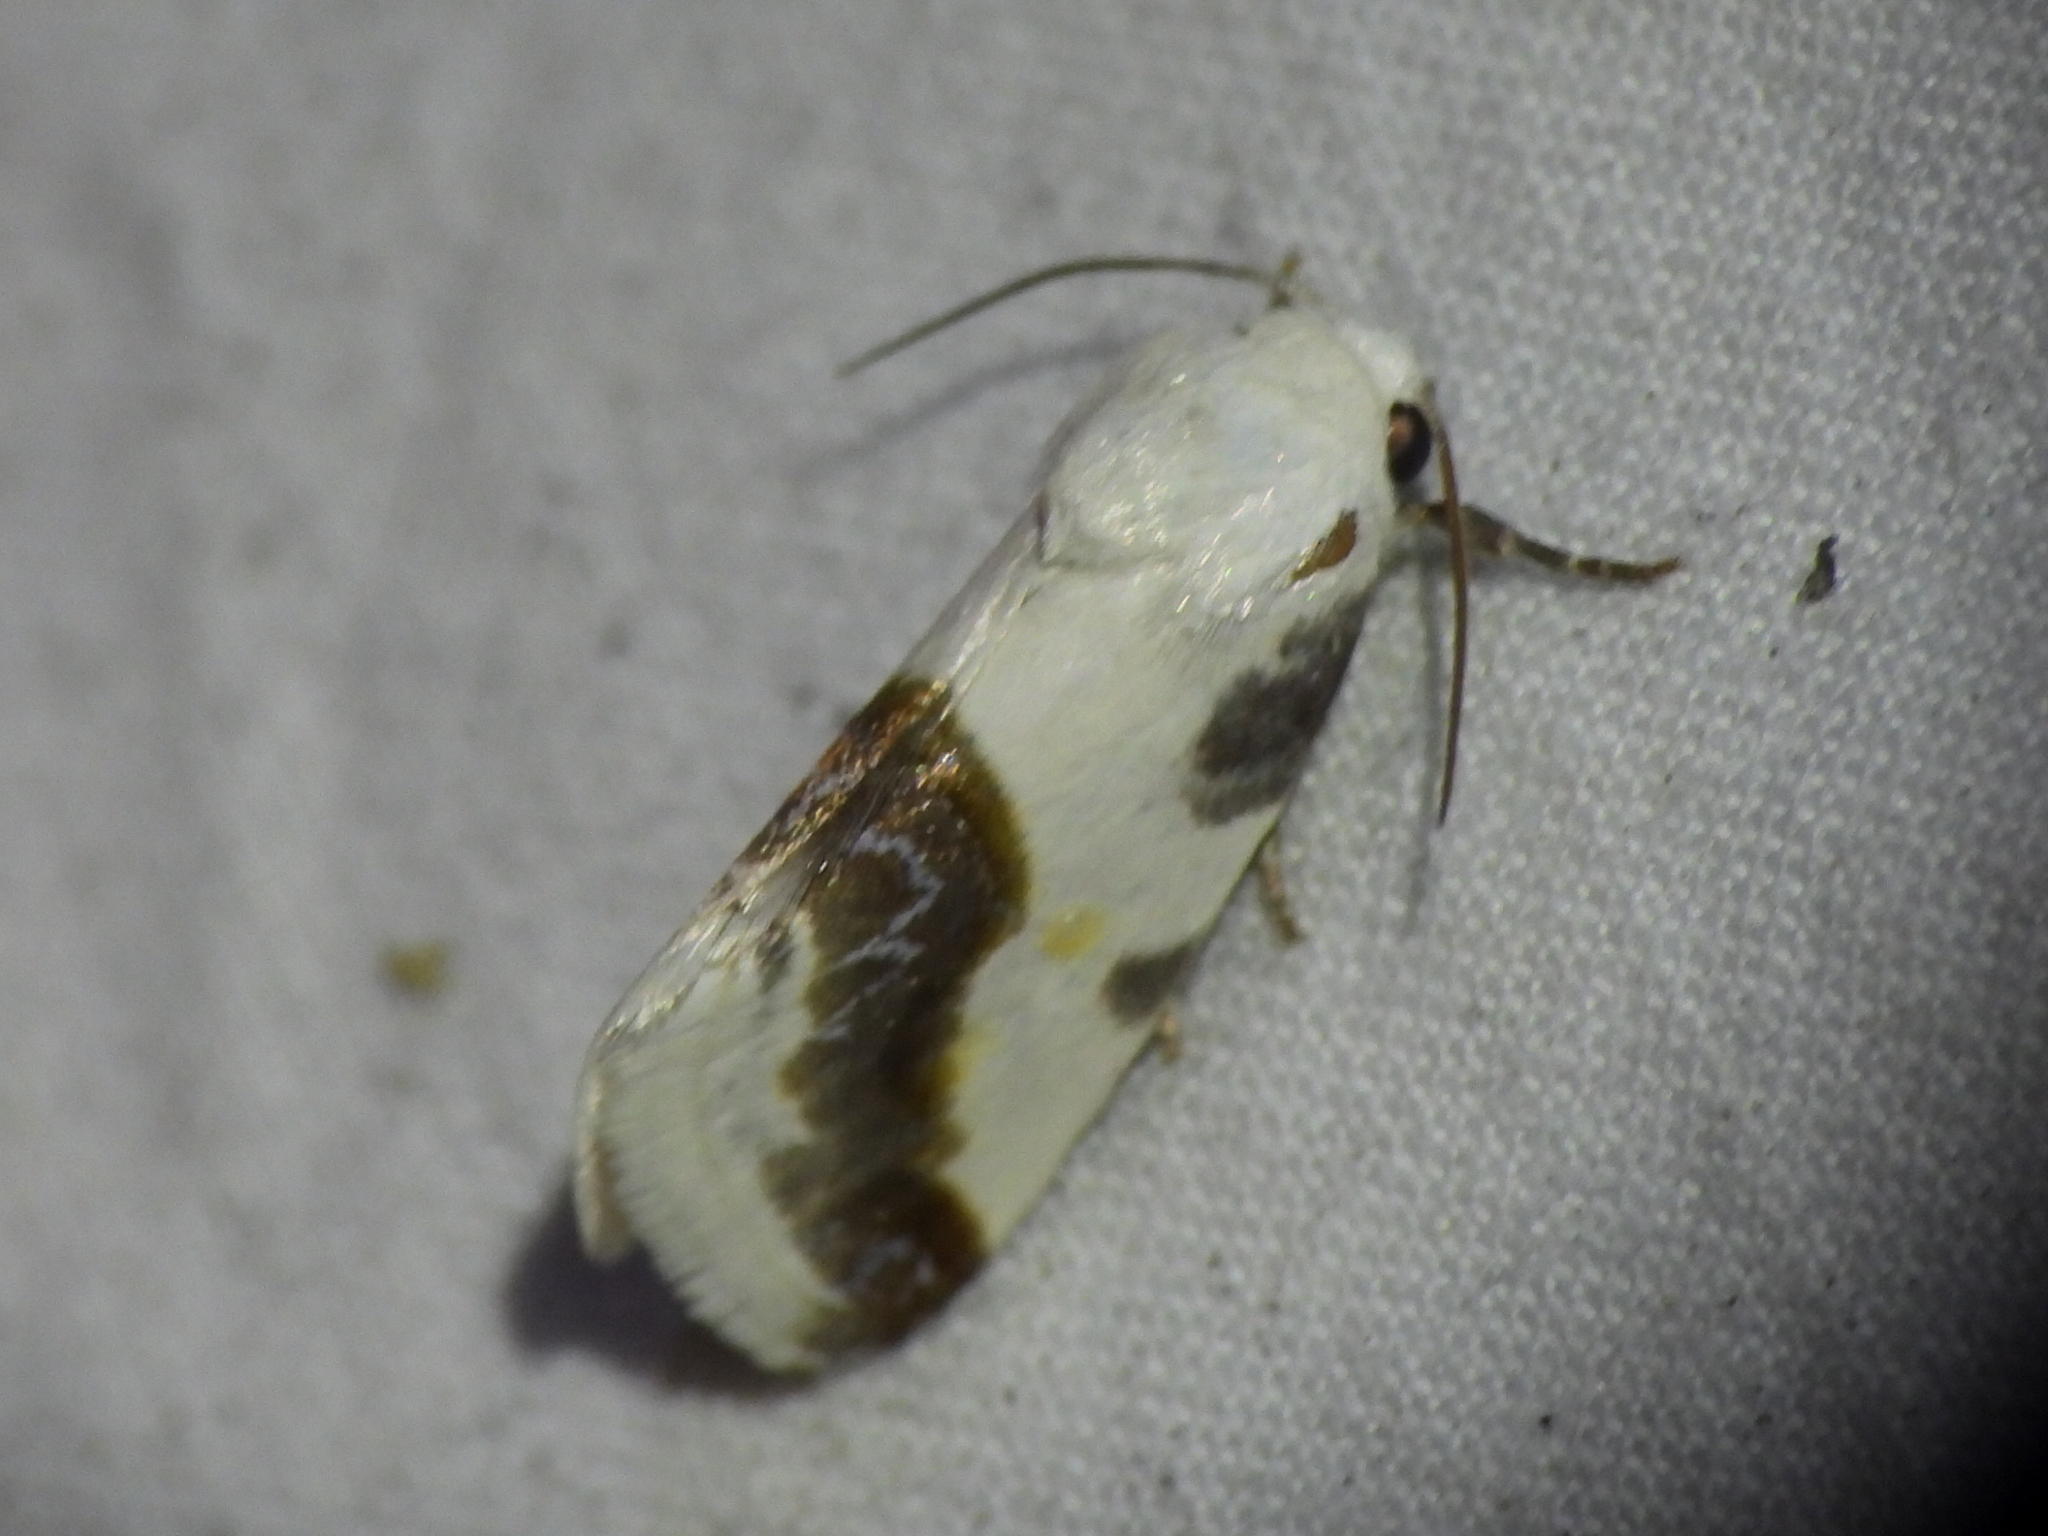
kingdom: Animalia
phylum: Arthropoda
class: Insecta
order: Lepidoptera
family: Noctuidae
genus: Acontia
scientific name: Acontia cretata
